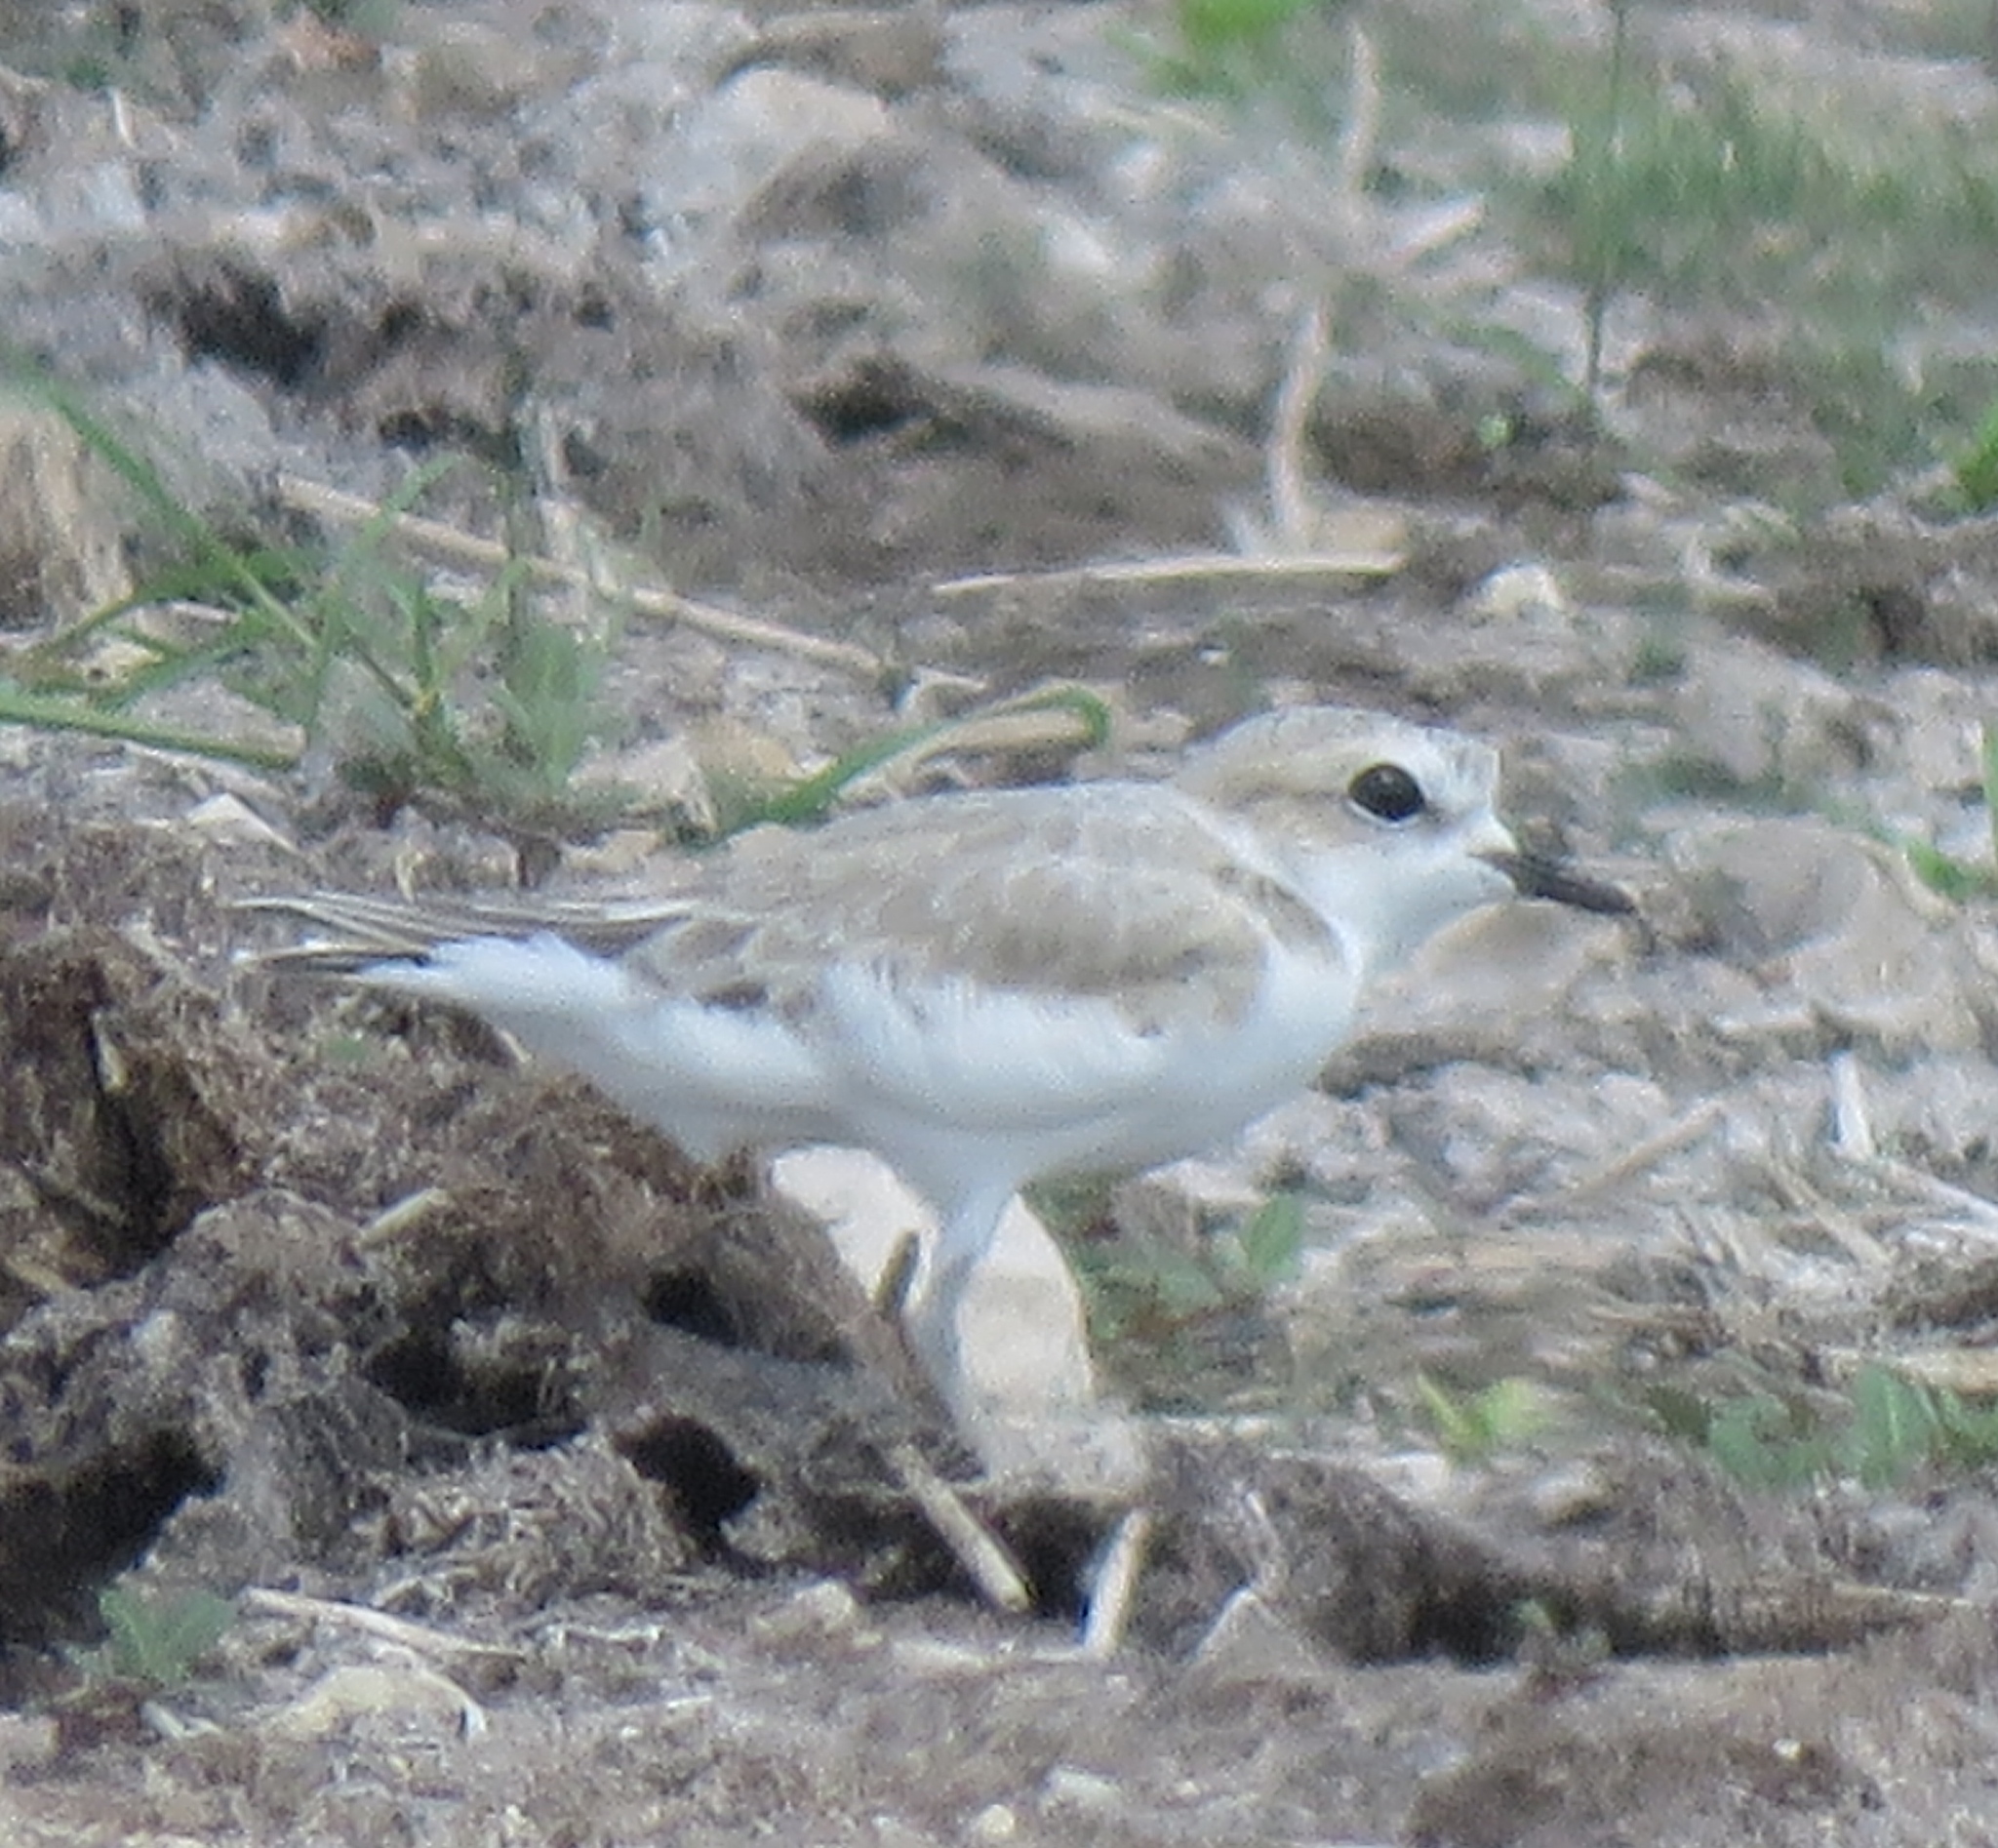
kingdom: Animalia
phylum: Chordata
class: Aves
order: Charadriiformes
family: Charadriidae
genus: Anarhynchus
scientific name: Anarhynchus
